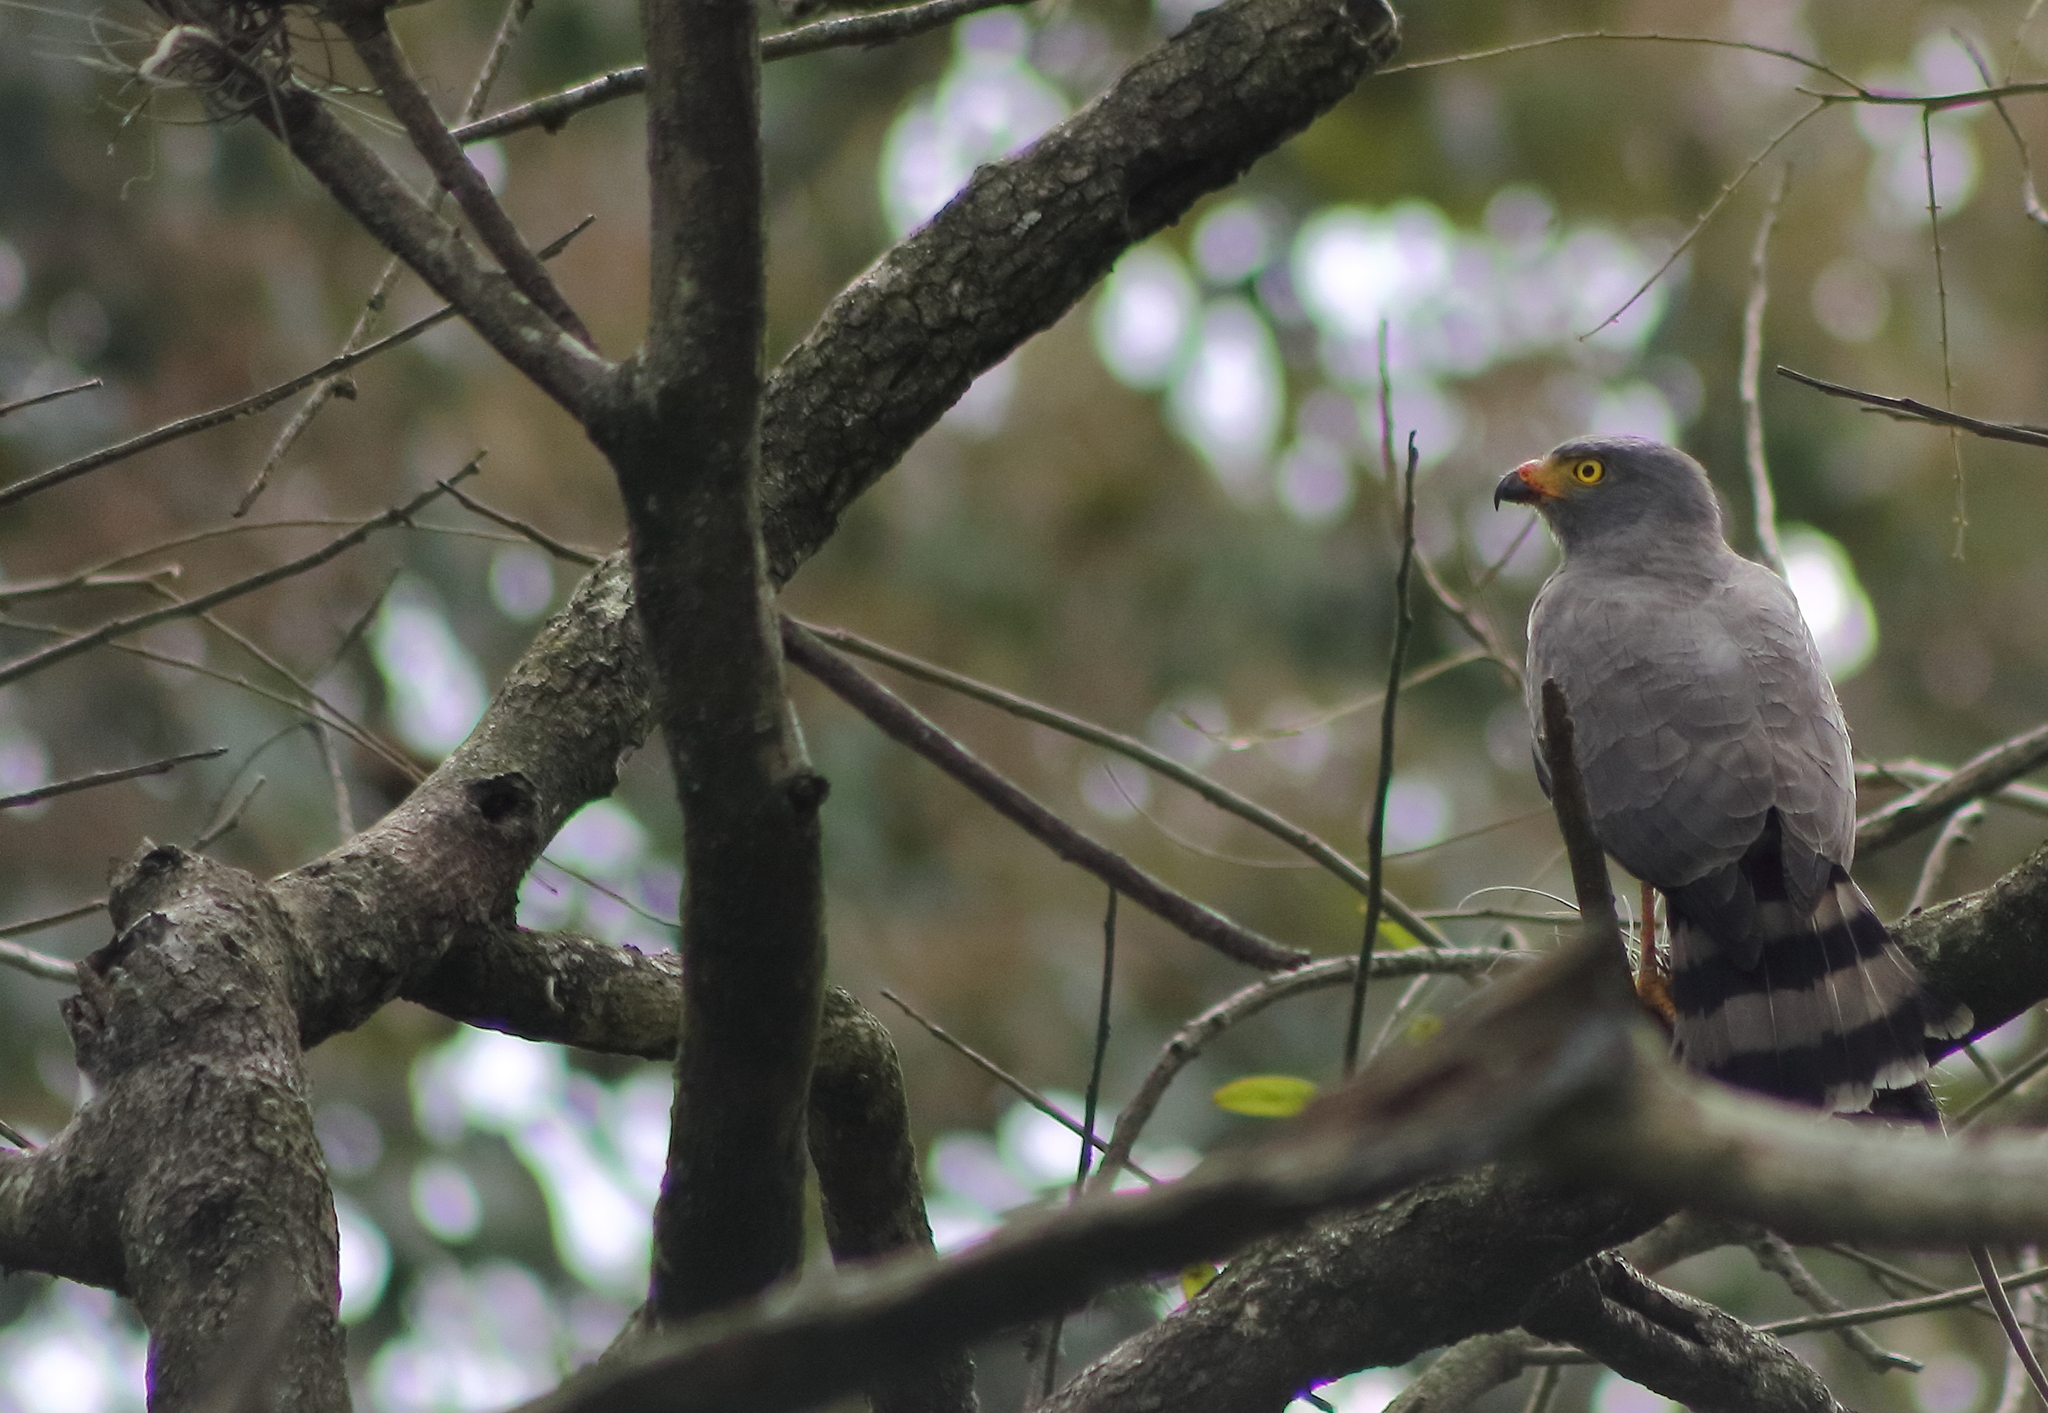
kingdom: Animalia
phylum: Chordata
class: Aves
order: Accipitriformes
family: Accipitridae
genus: Rupornis
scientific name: Rupornis magnirostris
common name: Roadside hawk
